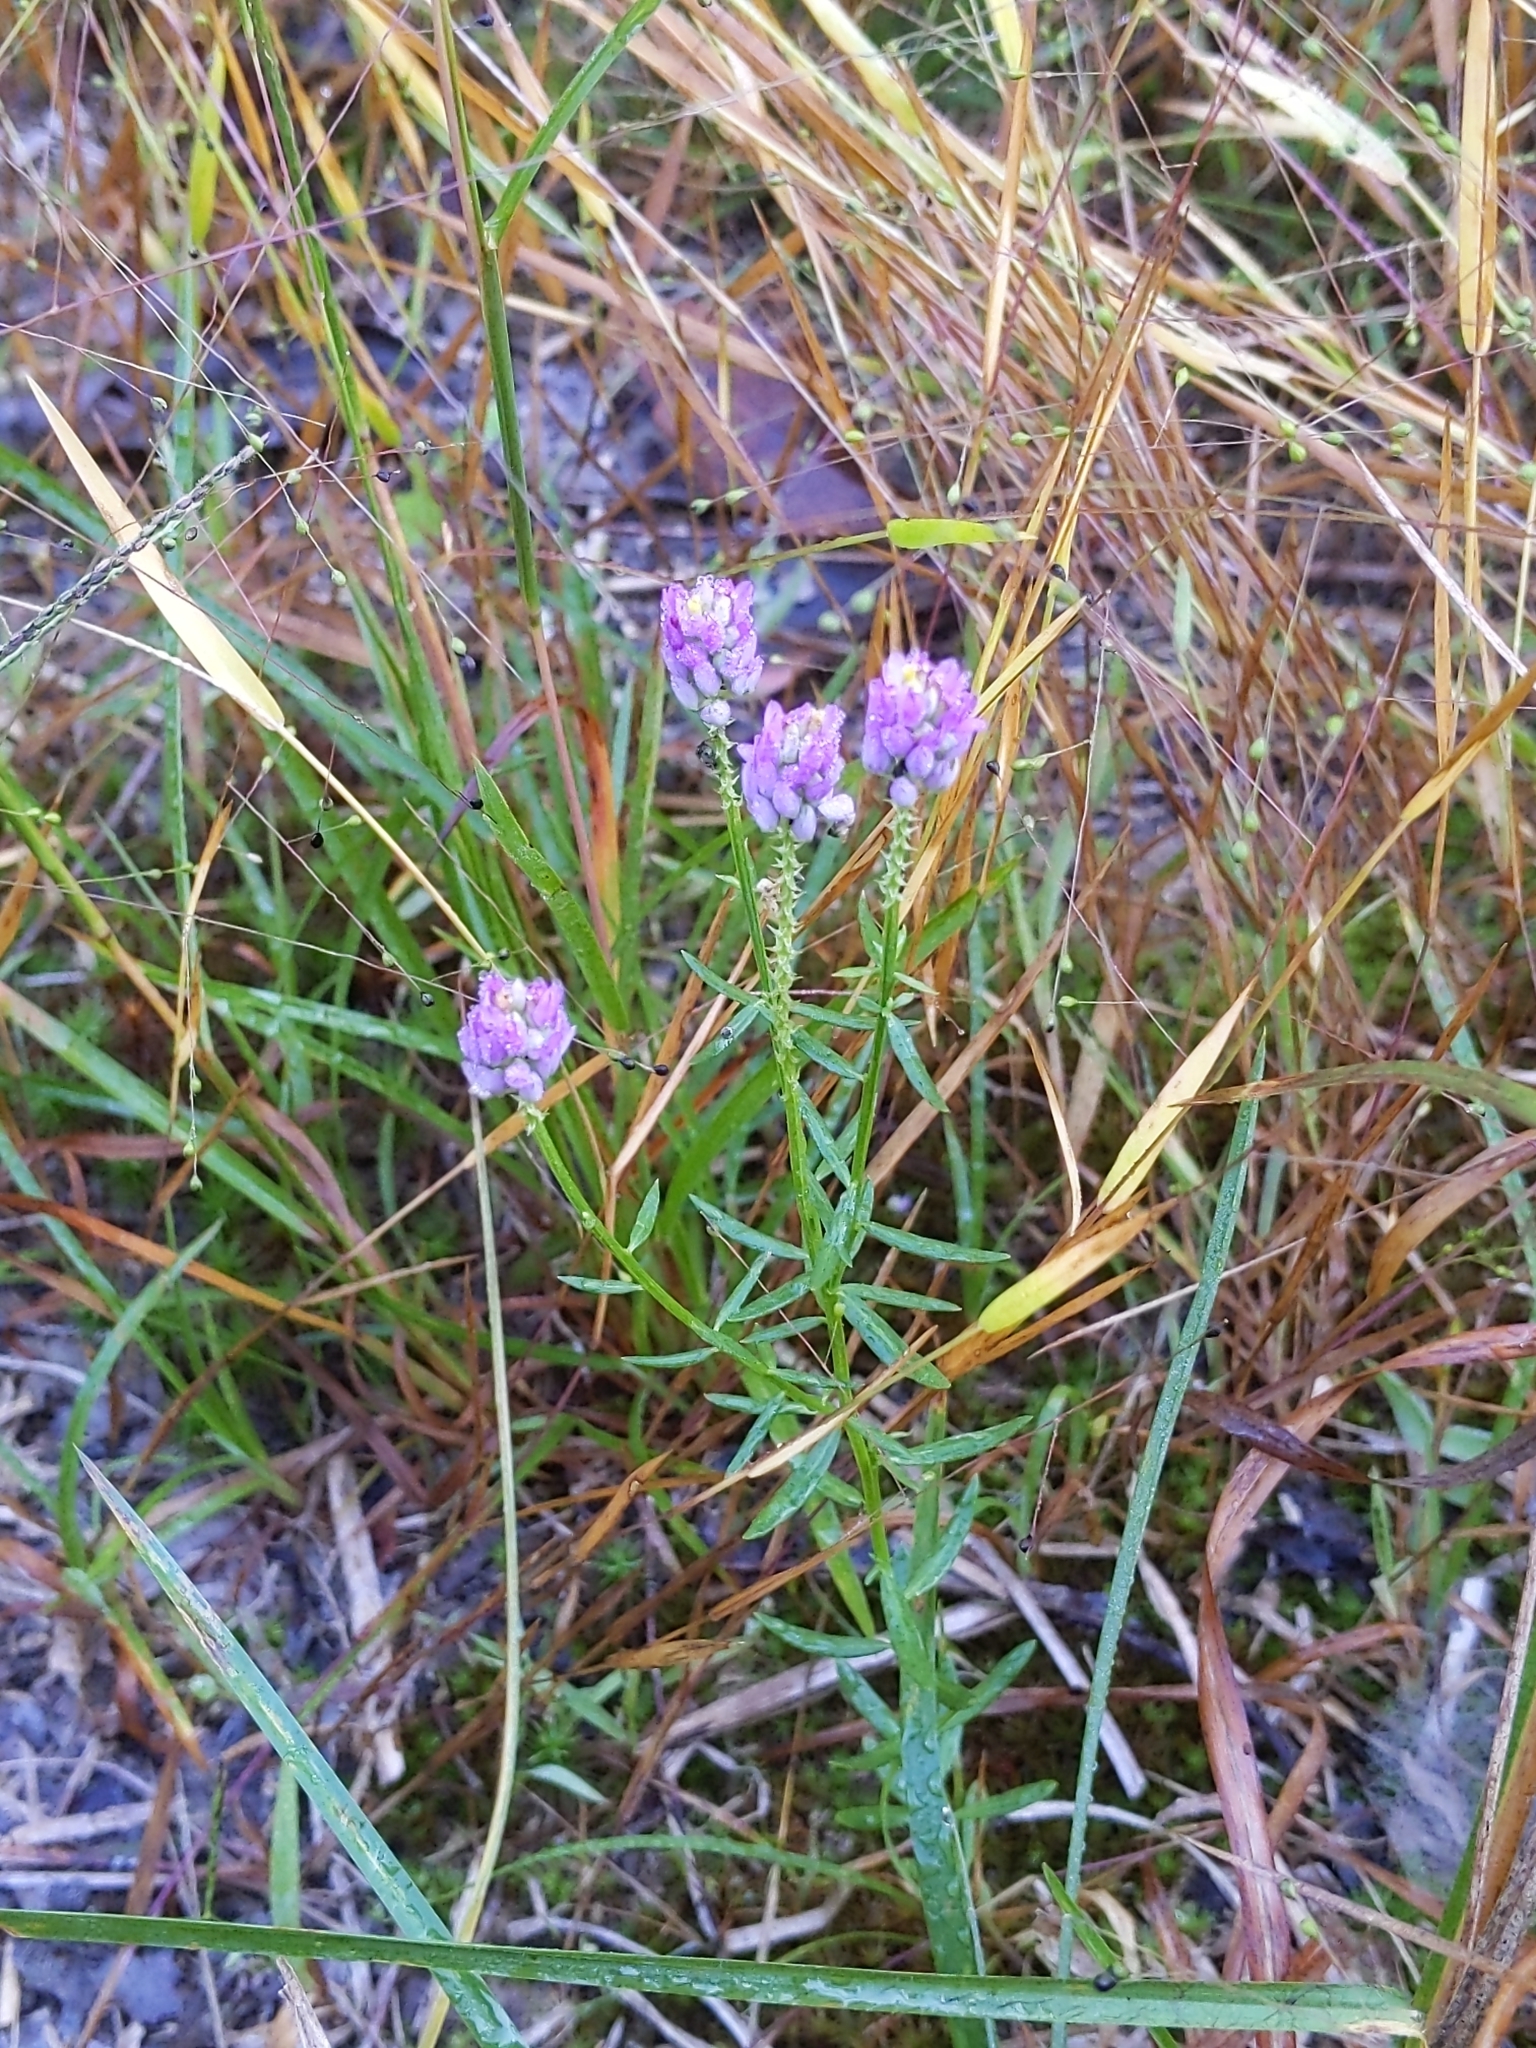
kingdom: Plantae
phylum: Tracheophyta
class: Magnoliopsida
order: Fabales
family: Polygalaceae
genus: Polygala
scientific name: Polygala curtissii
